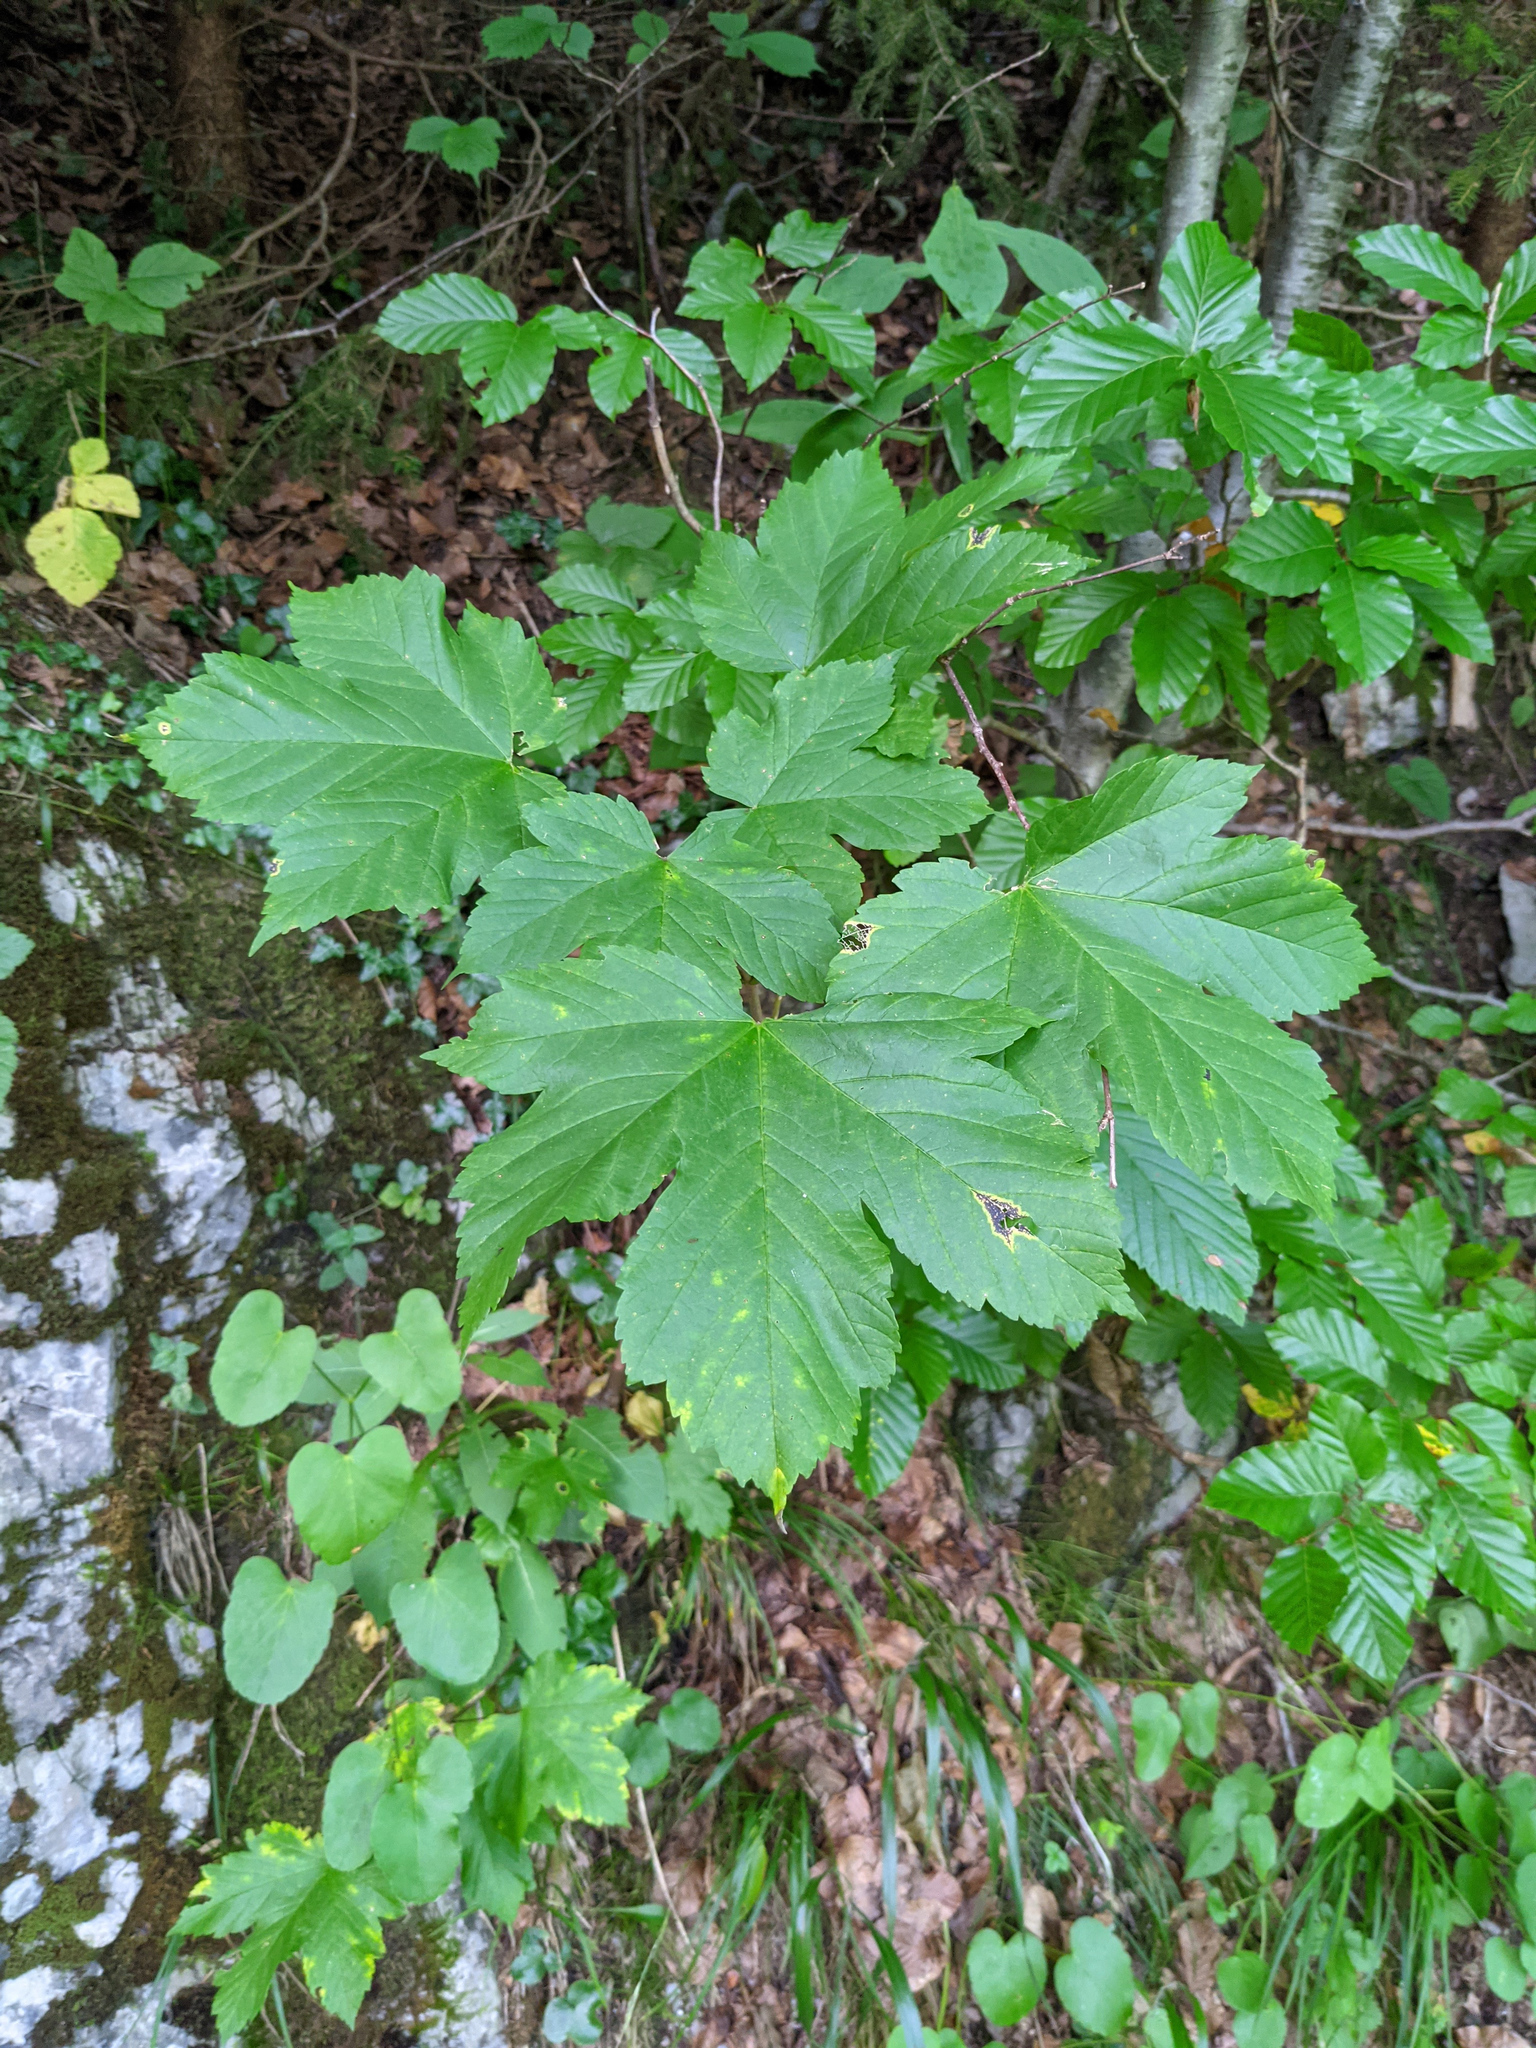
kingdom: Plantae
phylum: Tracheophyta
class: Magnoliopsida
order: Sapindales
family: Sapindaceae
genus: Acer
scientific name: Acer pseudoplatanus
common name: Sycamore
